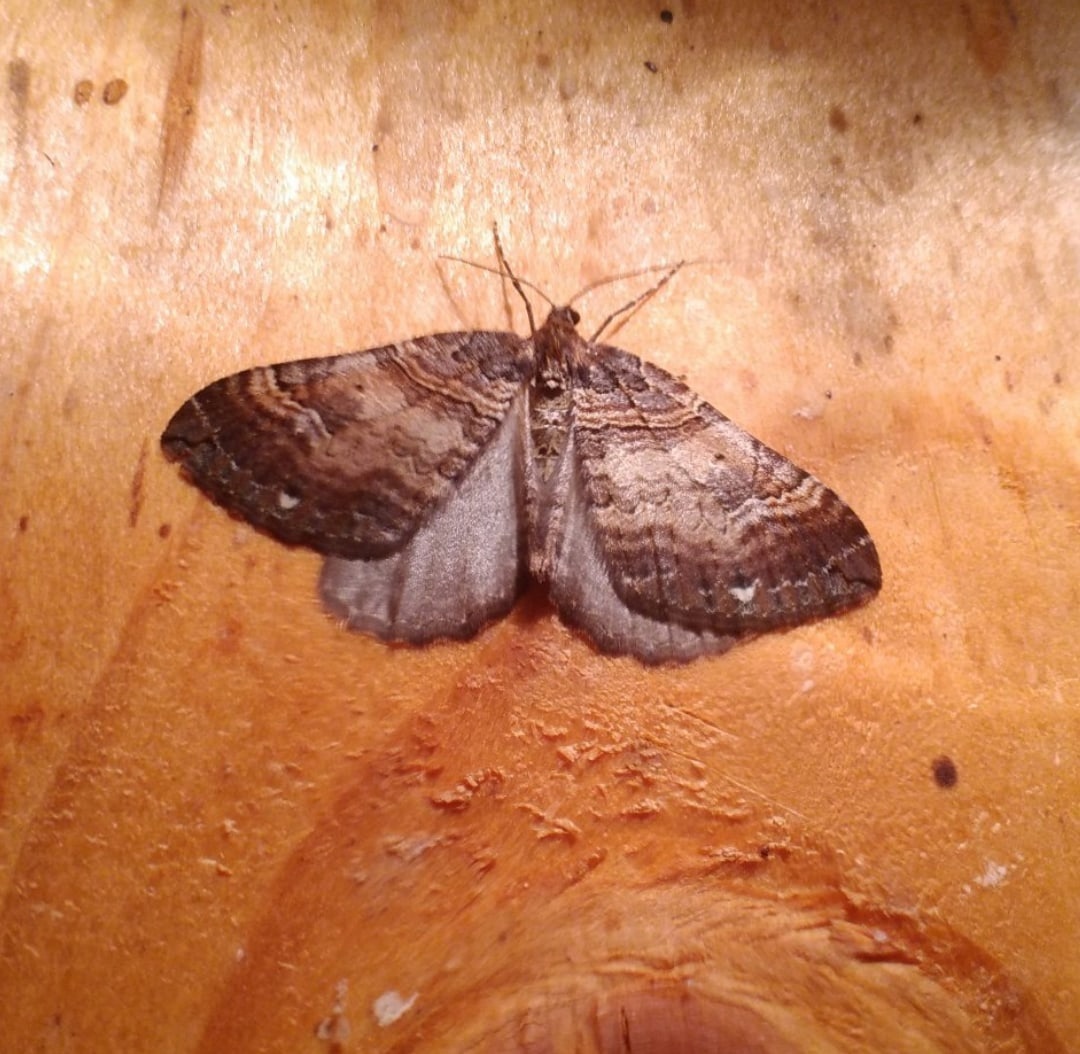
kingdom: Animalia
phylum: Arthropoda
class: Insecta
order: Lepidoptera
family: Geometridae
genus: Anticlea
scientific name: Anticlea badiata
